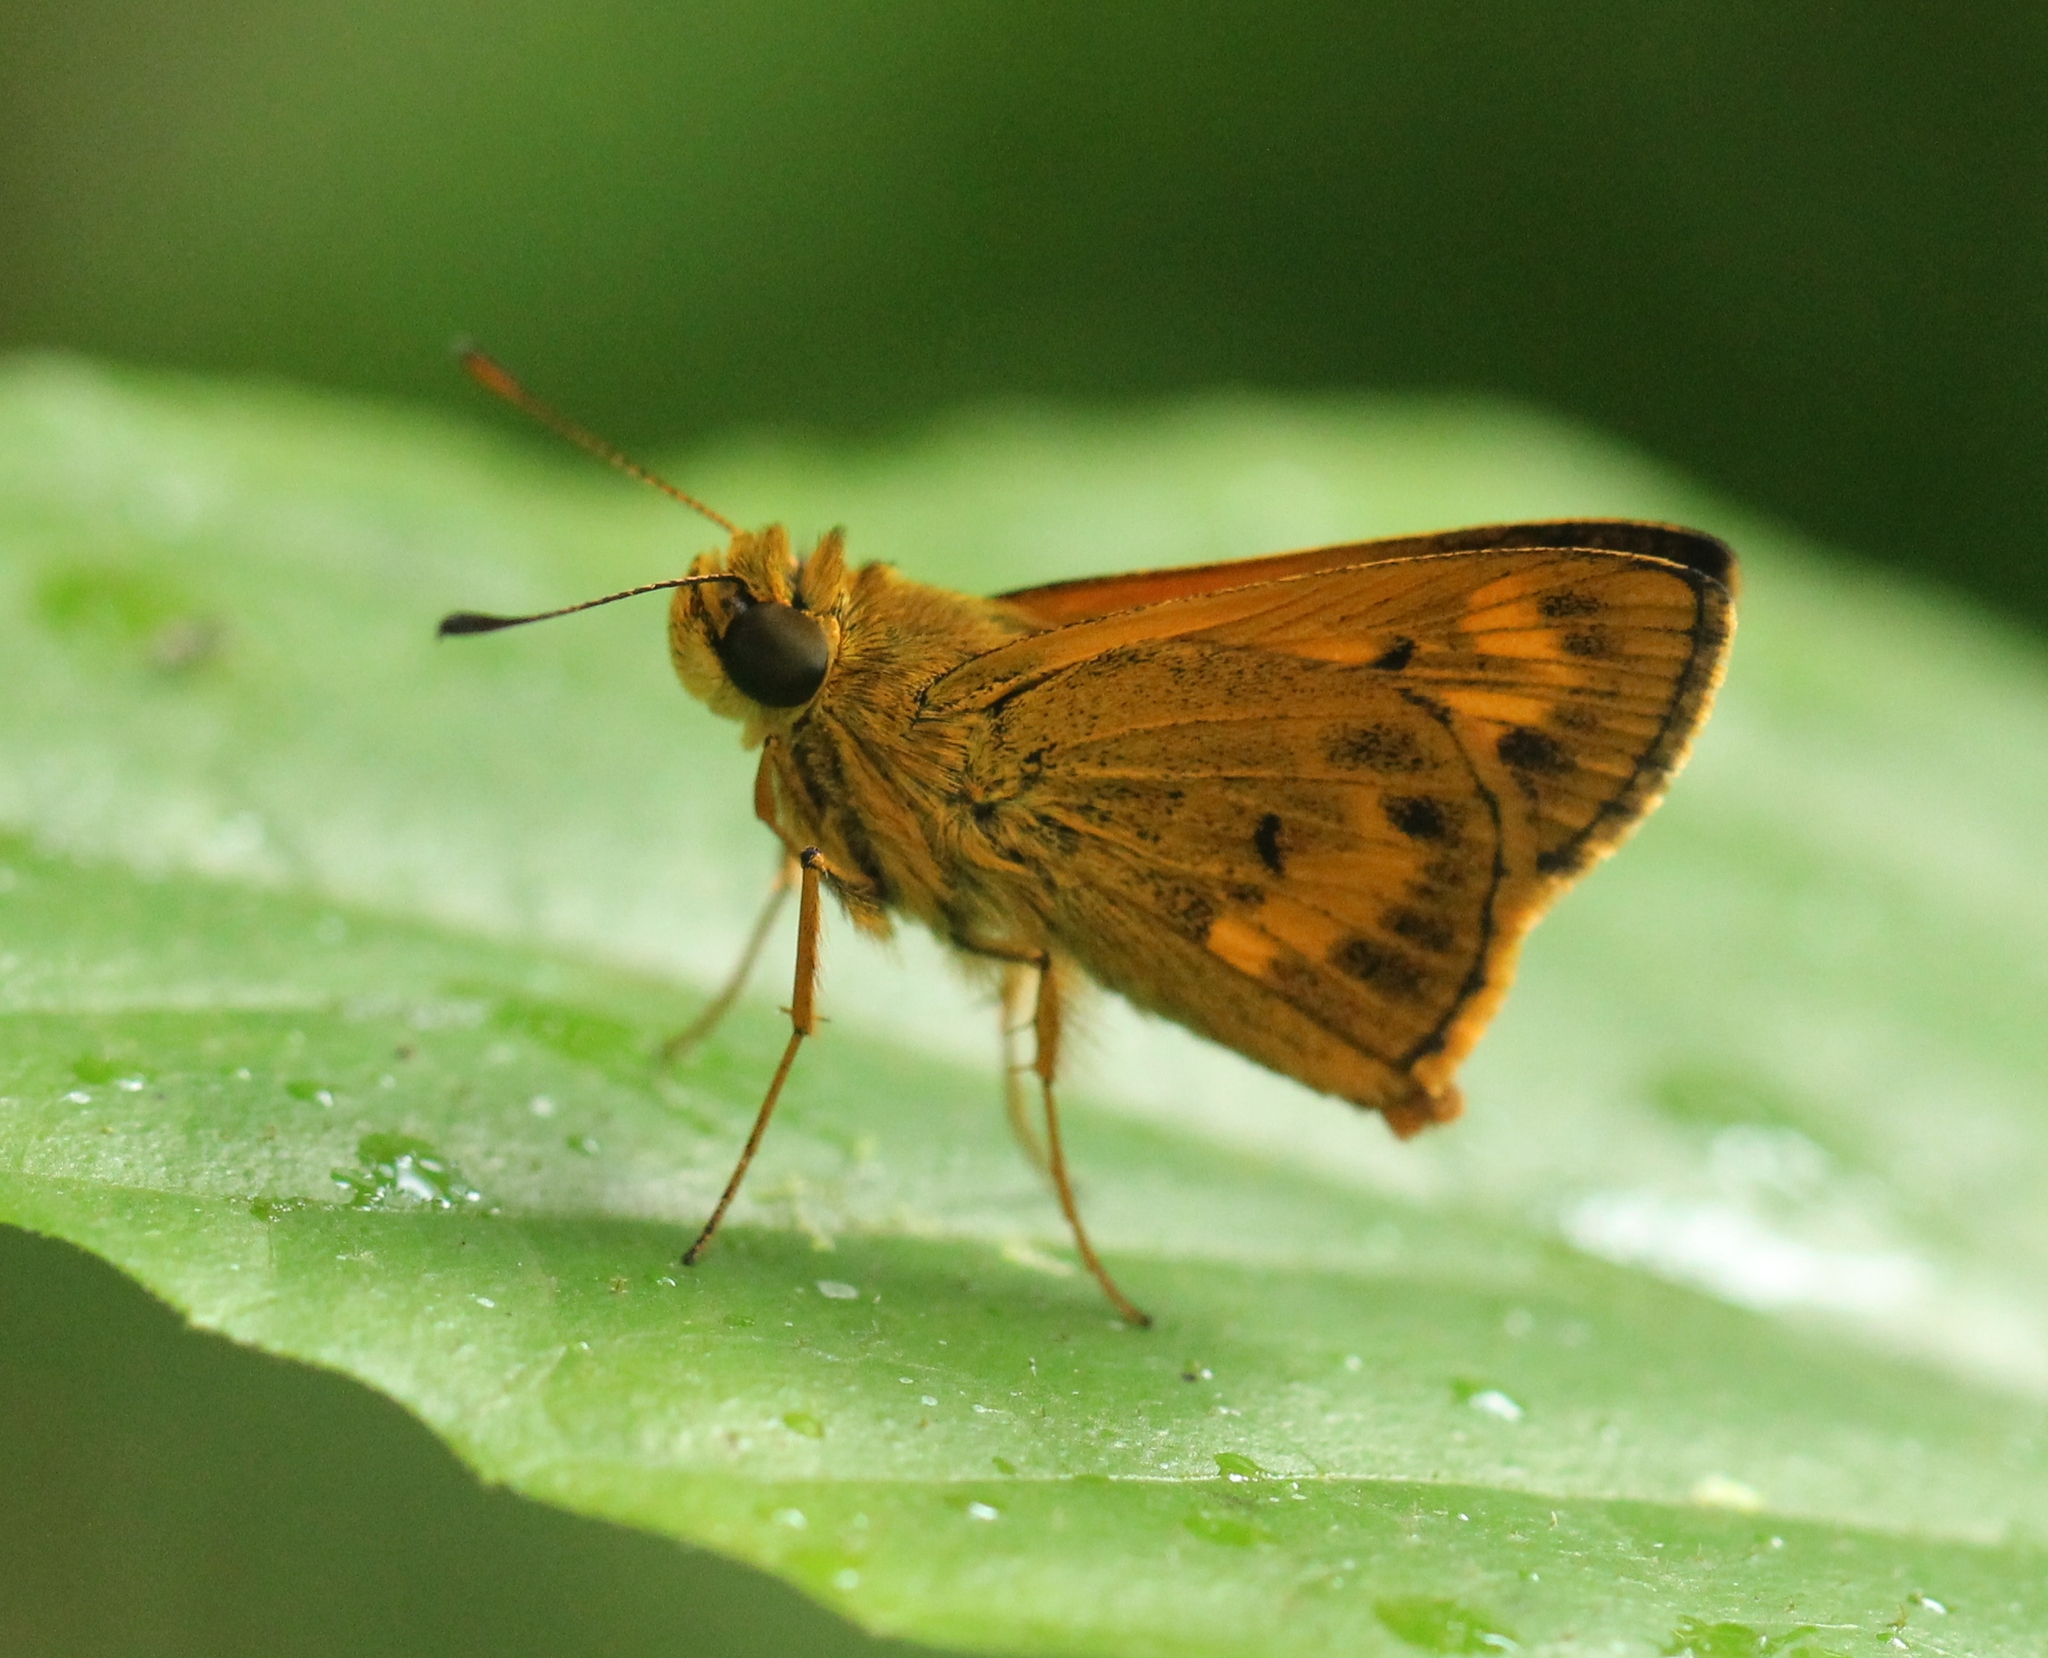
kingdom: Animalia
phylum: Arthropoda
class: Insecta
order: Lepidoptera
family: Hesperiidae
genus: Oriens
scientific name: Oriens goloides
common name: Smaller dartlet
